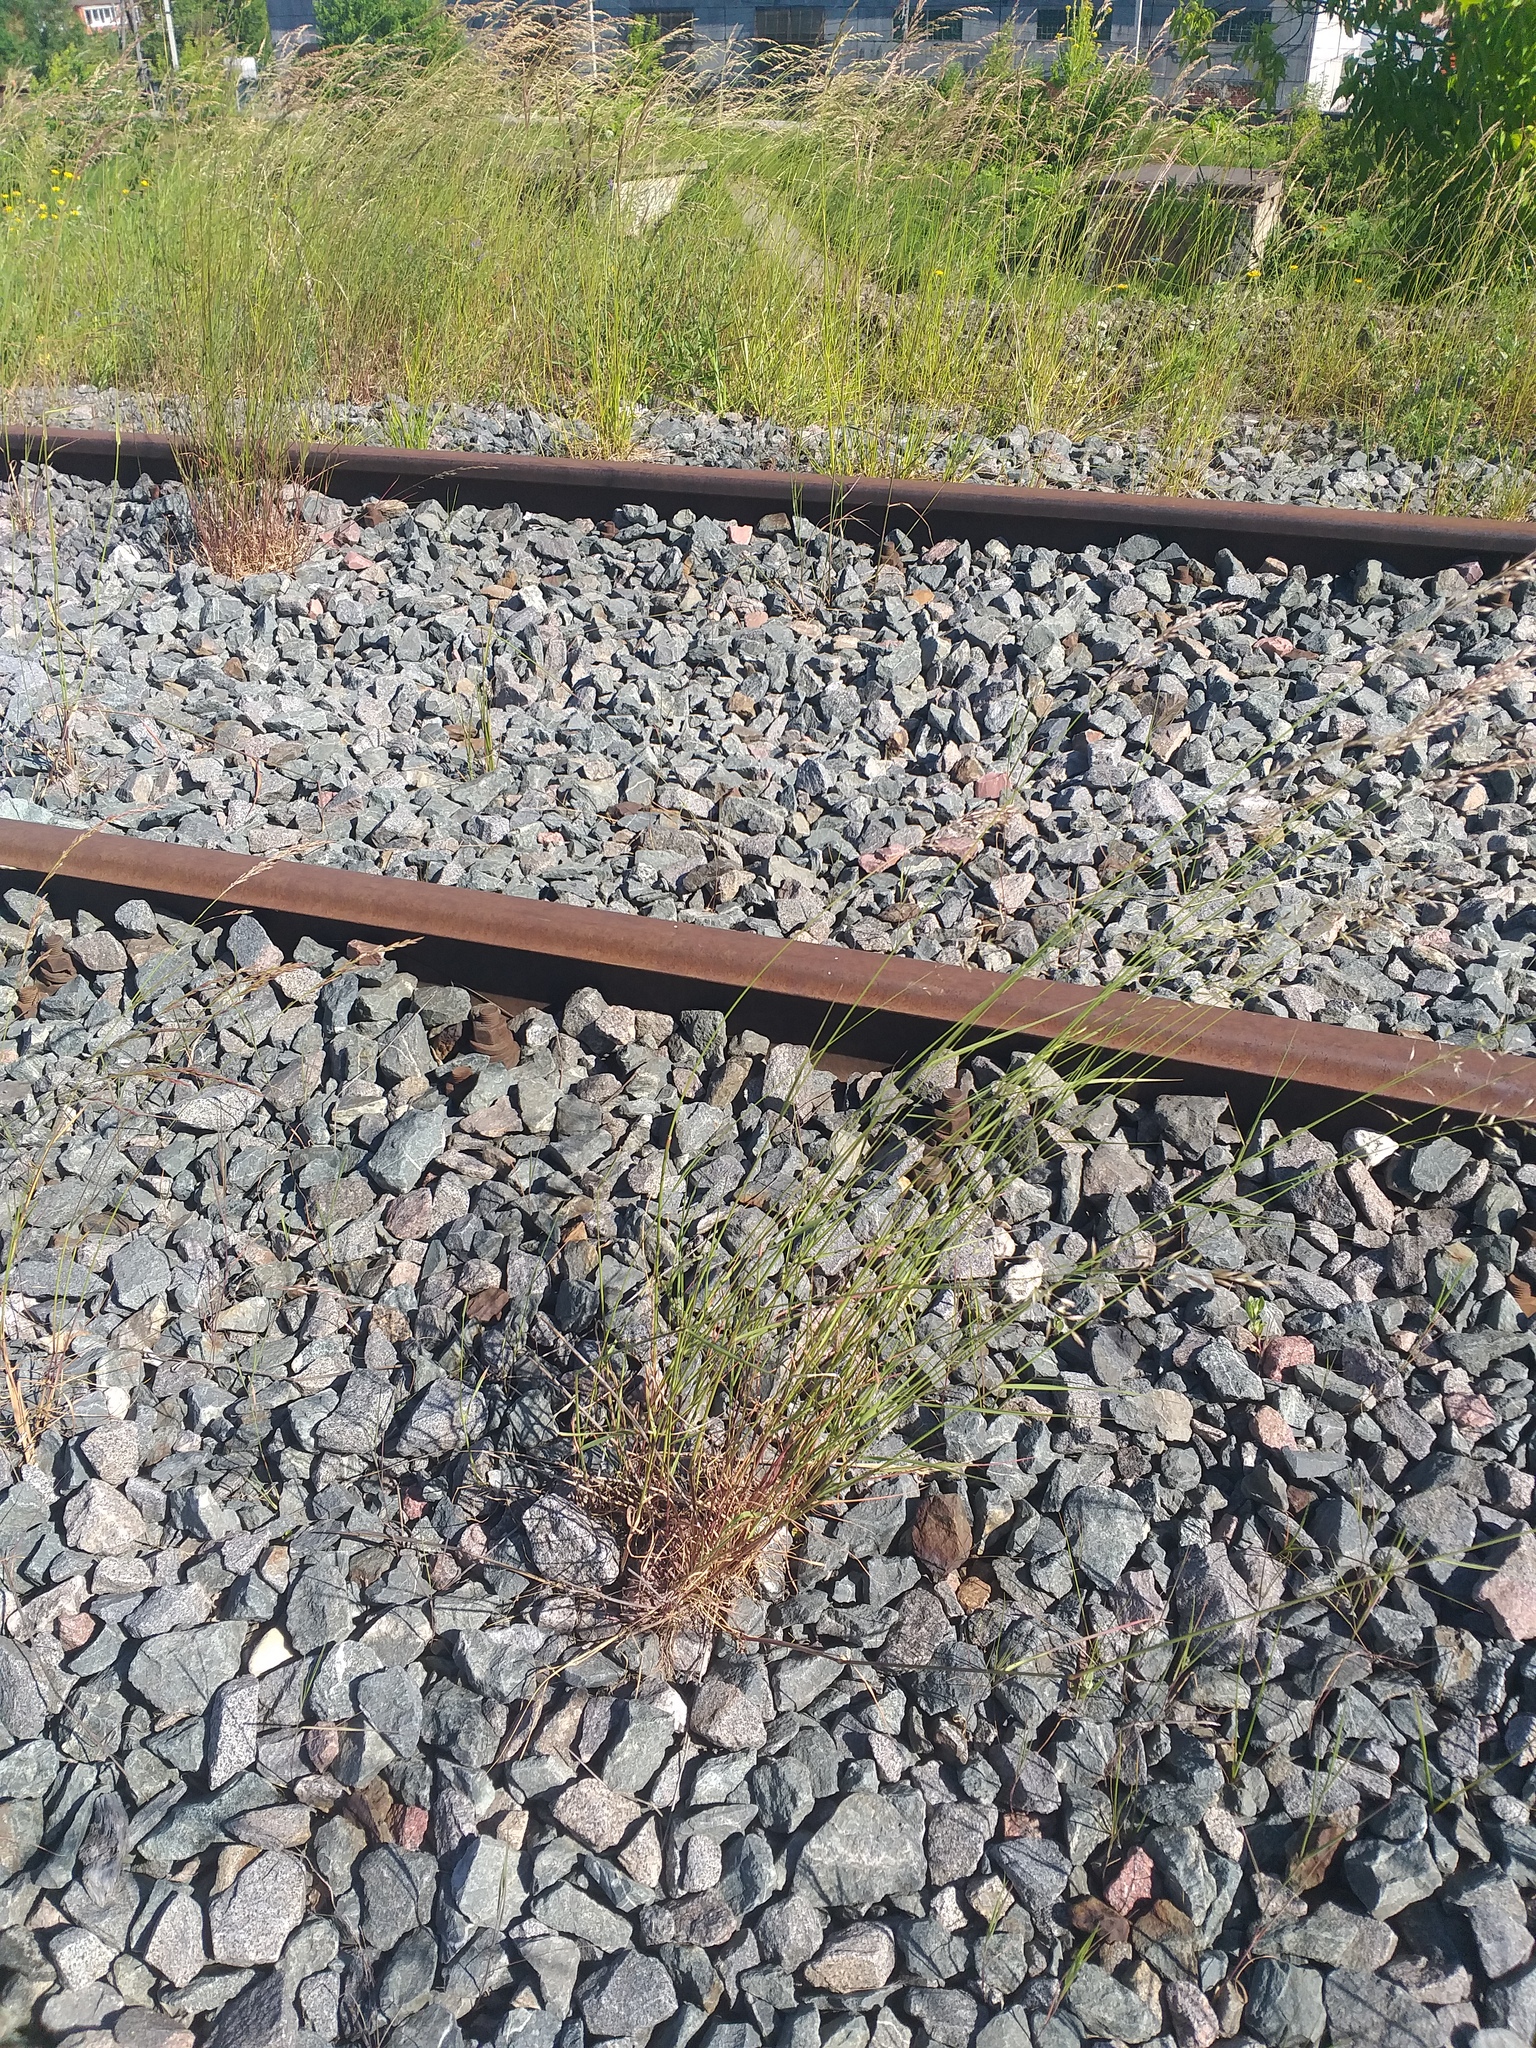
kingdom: Plantae
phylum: Tracheophyta
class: Liliopsida
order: Poales
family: Poaceae
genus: Arrhenatherum
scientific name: Arrhenatherum elatius
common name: Tall oatgrass
